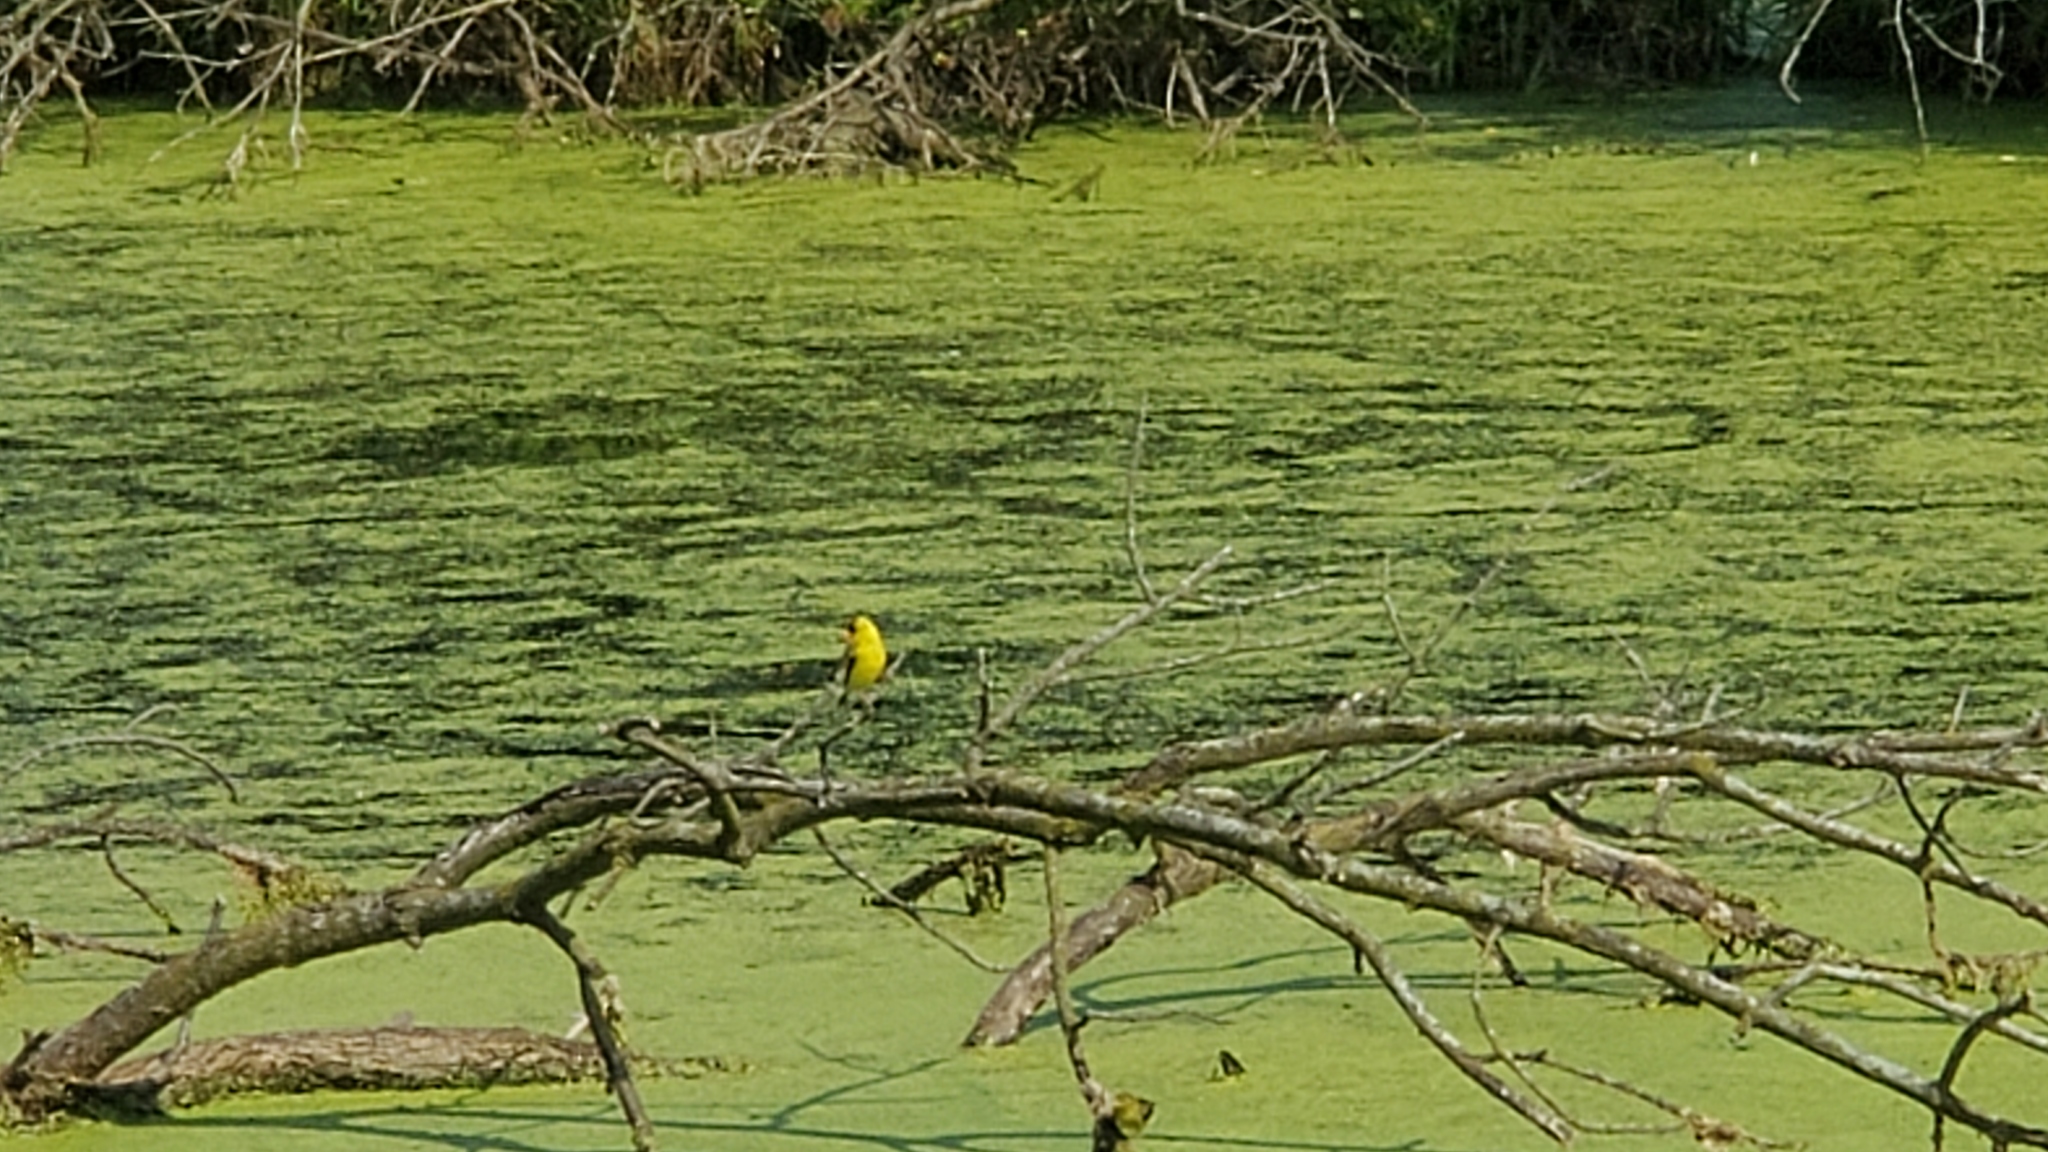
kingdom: Animalia
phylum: Chordata
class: Aves
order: Passeriformes
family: Fringillidae
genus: Spinus
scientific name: Spinus tristis
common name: American goldfinch
